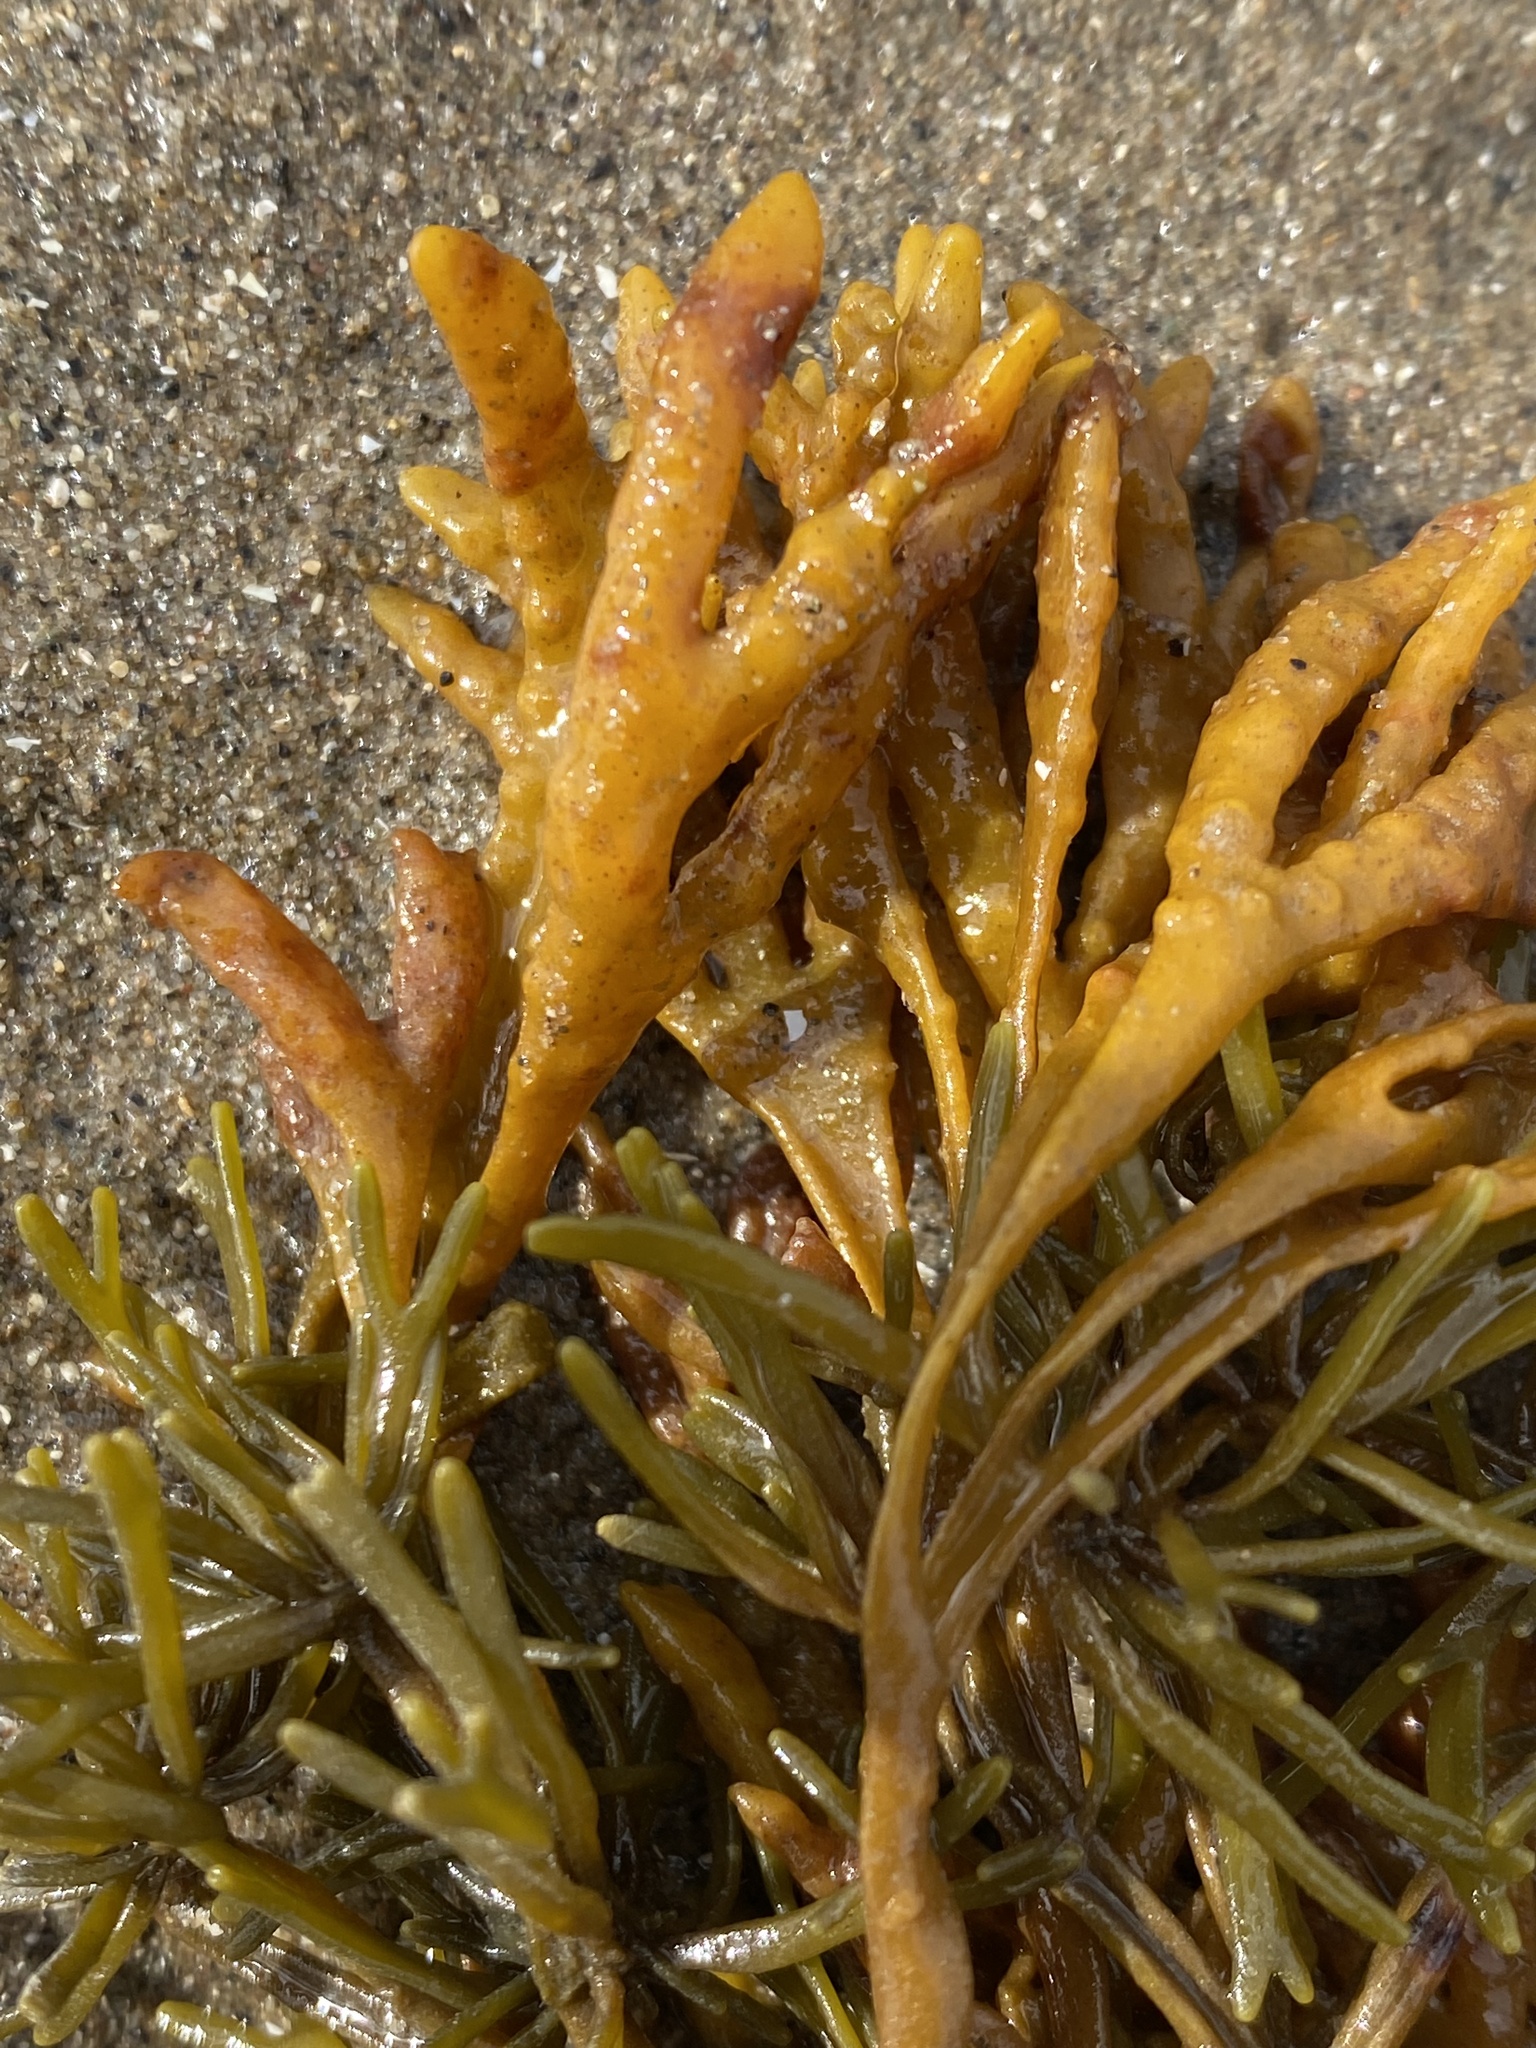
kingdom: Chromista
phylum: Ochrophyta
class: Phaeophyceae
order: Fucales
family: Fucaceae
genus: Pelvetia
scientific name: Pelvetia canaliculata
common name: Channelled wrack
